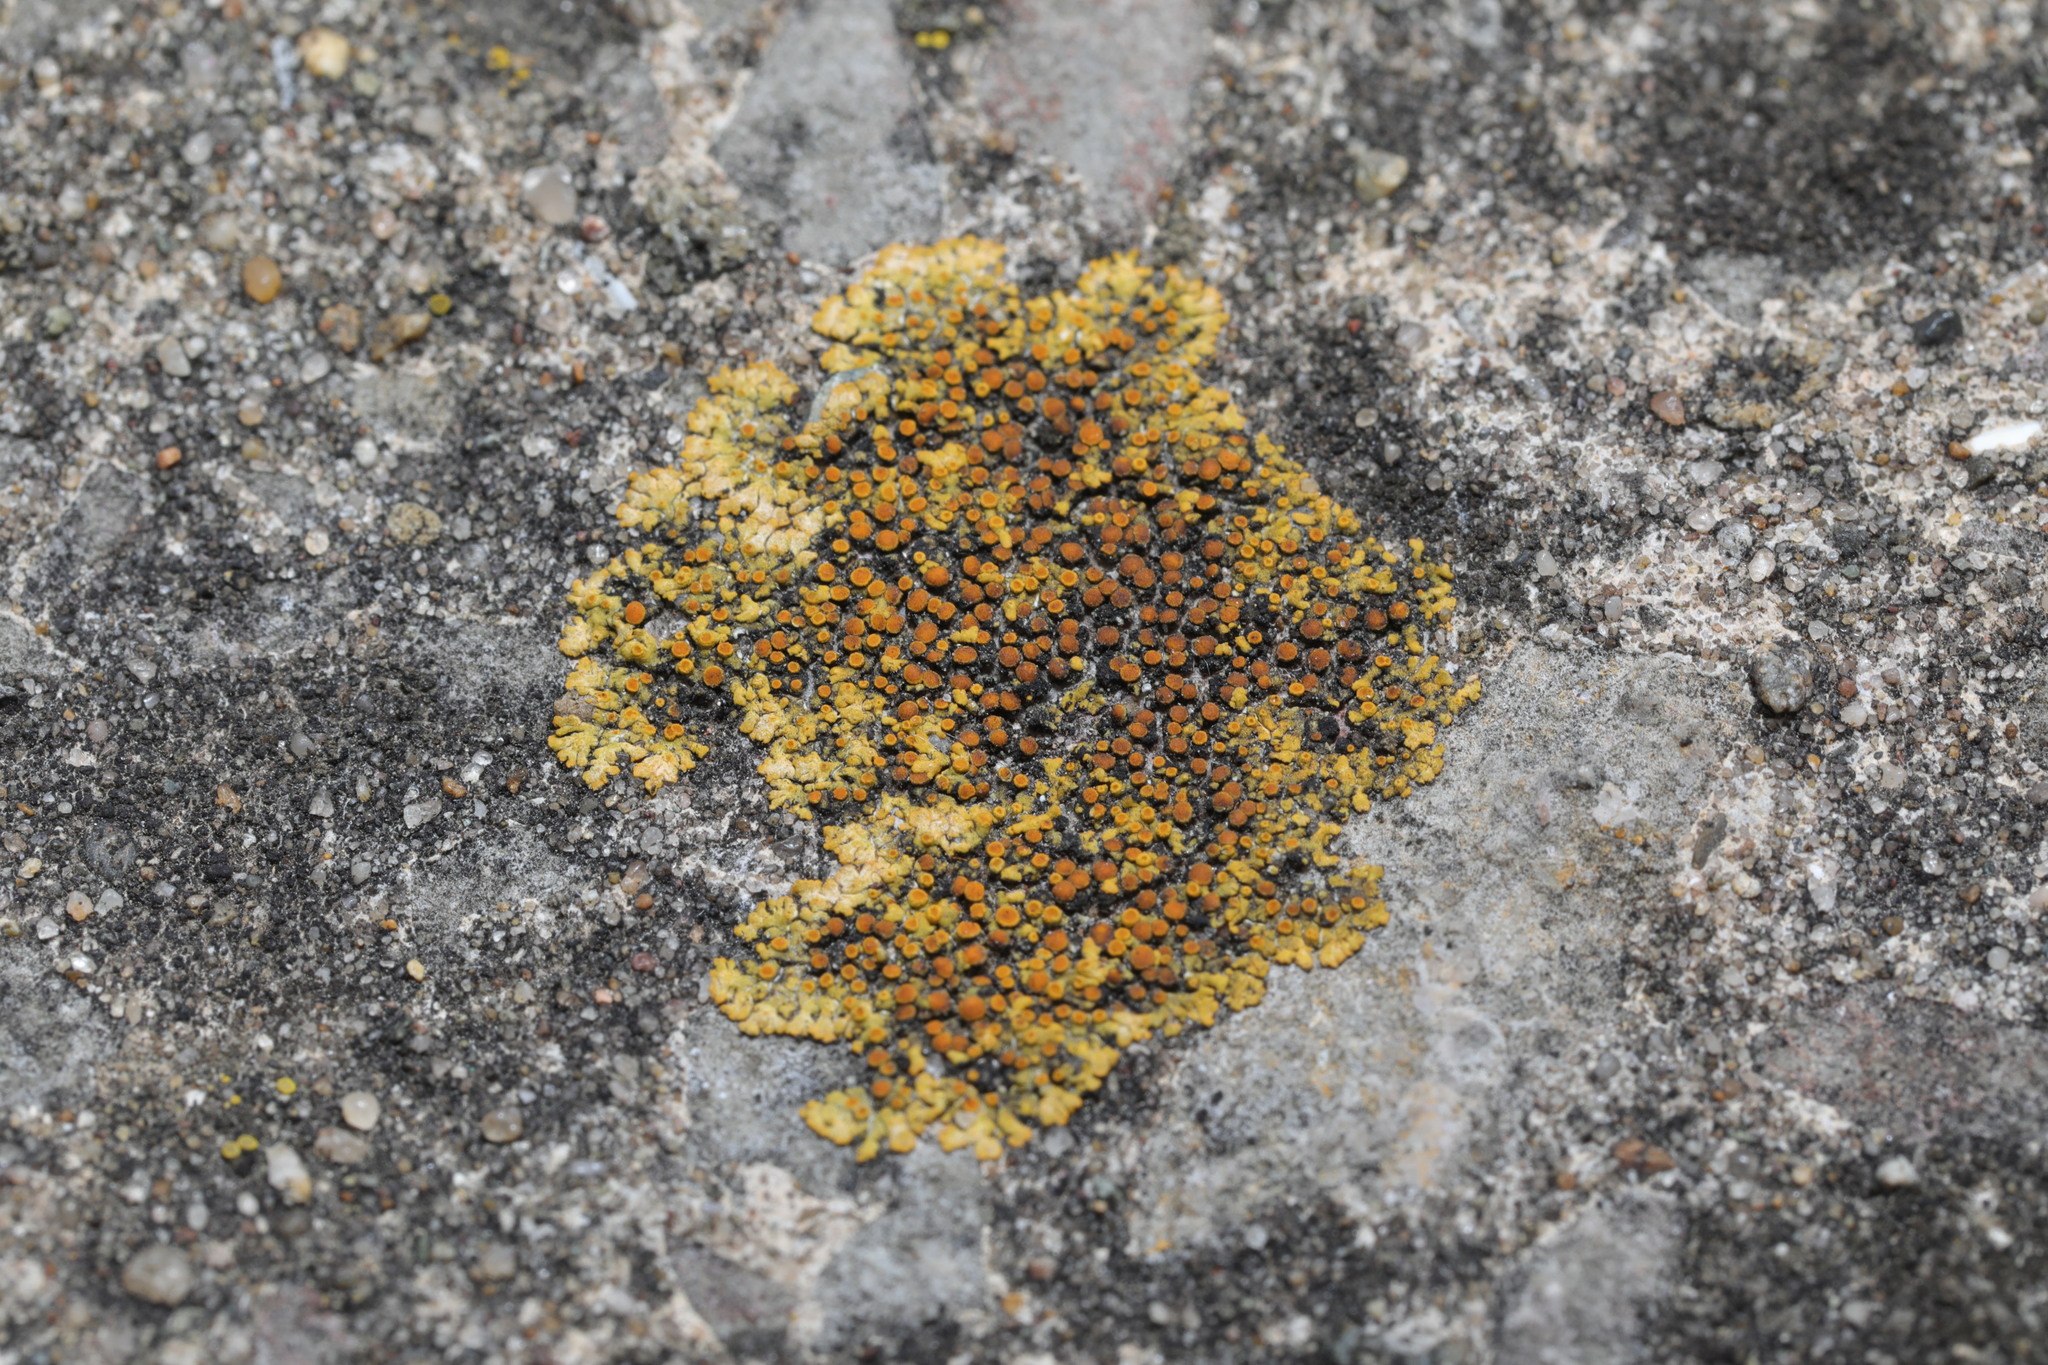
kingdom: Fungi
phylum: Ascomycota
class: Lecanoromycetes
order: Teloschistales
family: Teloschistaceae
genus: Calogaya
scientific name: Calogaya saxicola
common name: Rock jewel lichen
